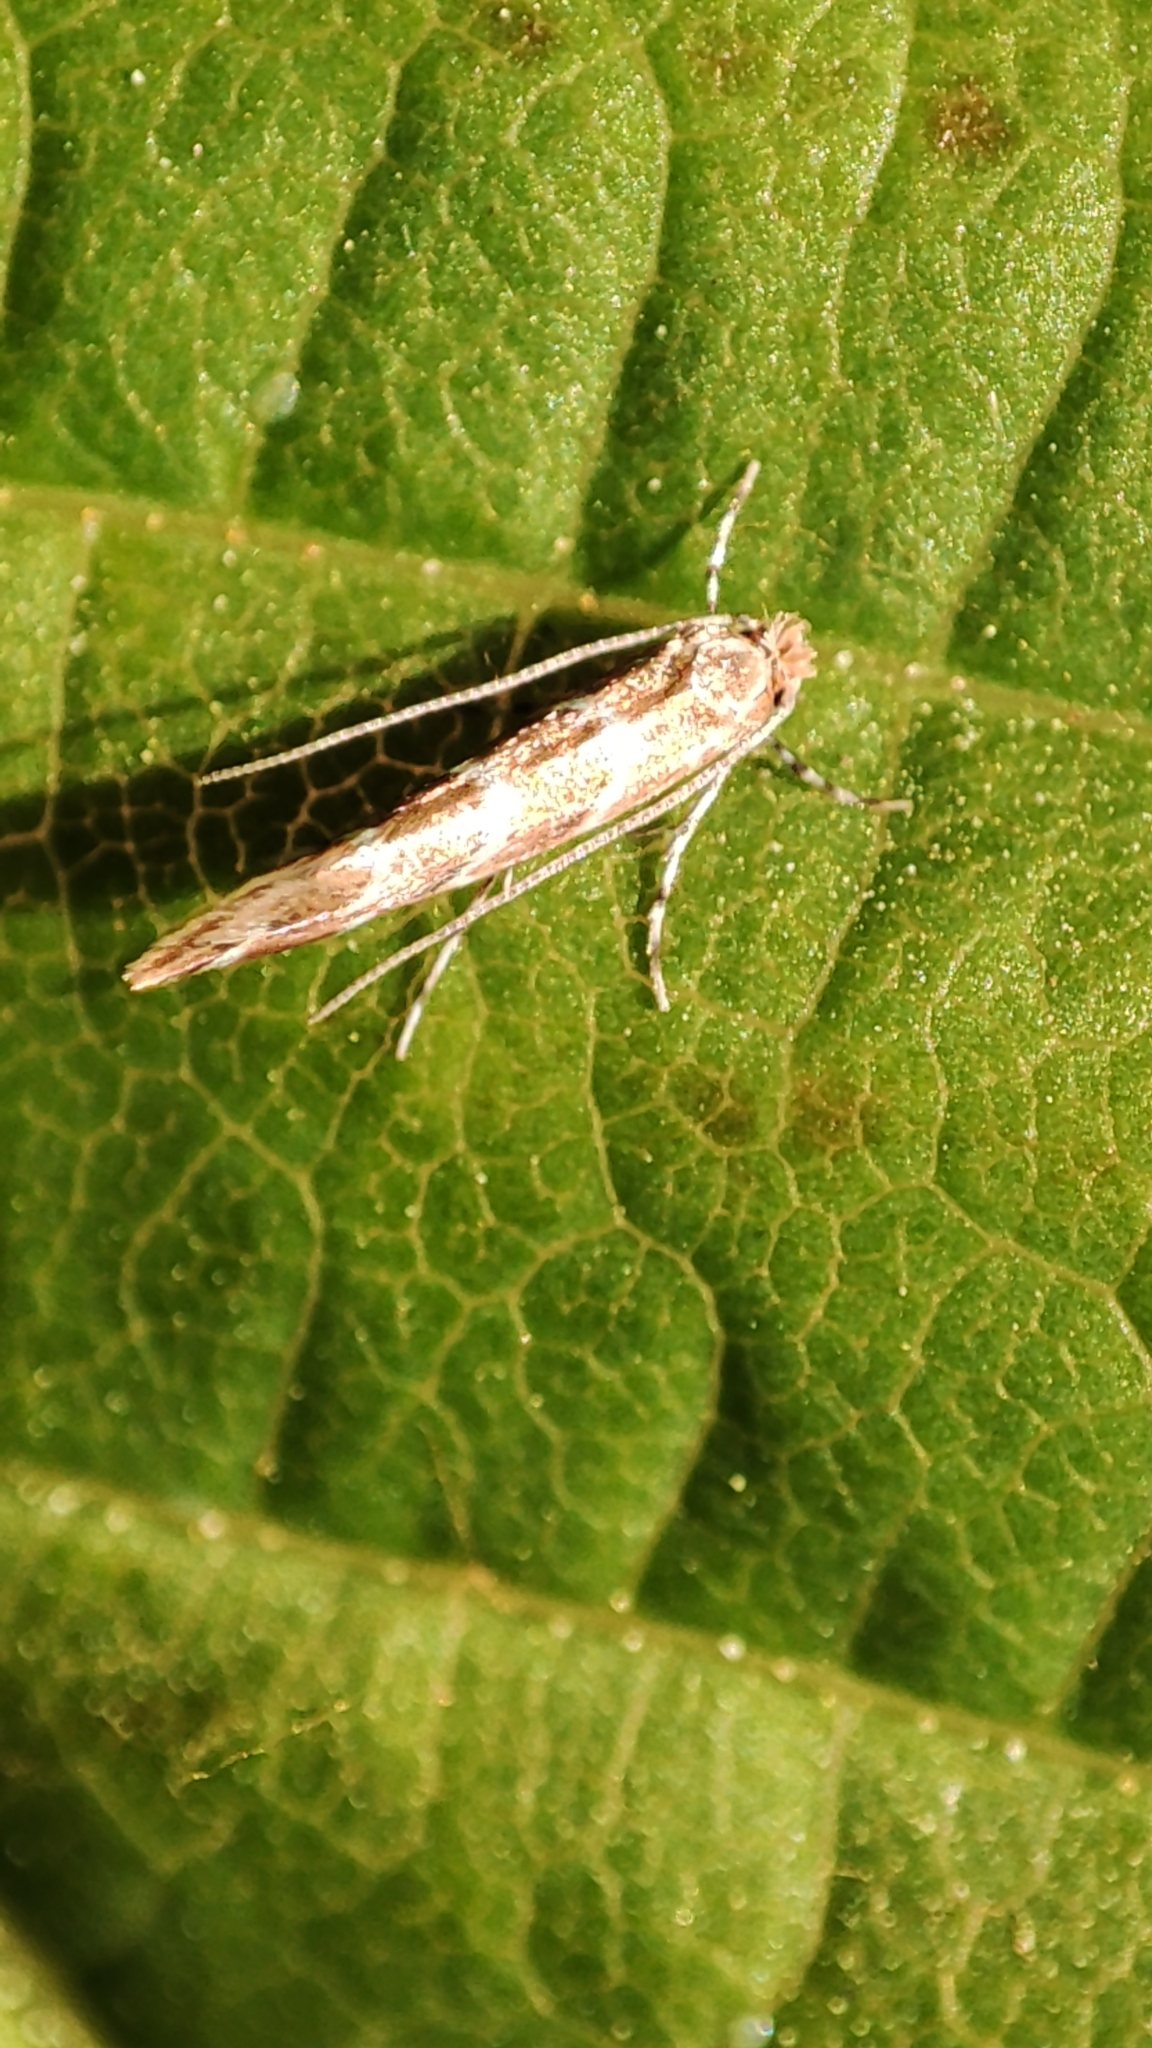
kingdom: Animalia
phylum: Arthropoda
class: Insecta
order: Lepidoptera
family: Gracillariidae
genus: Cameraria
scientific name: Cameraria ohridella
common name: Horse-chestnut leaf-miner
